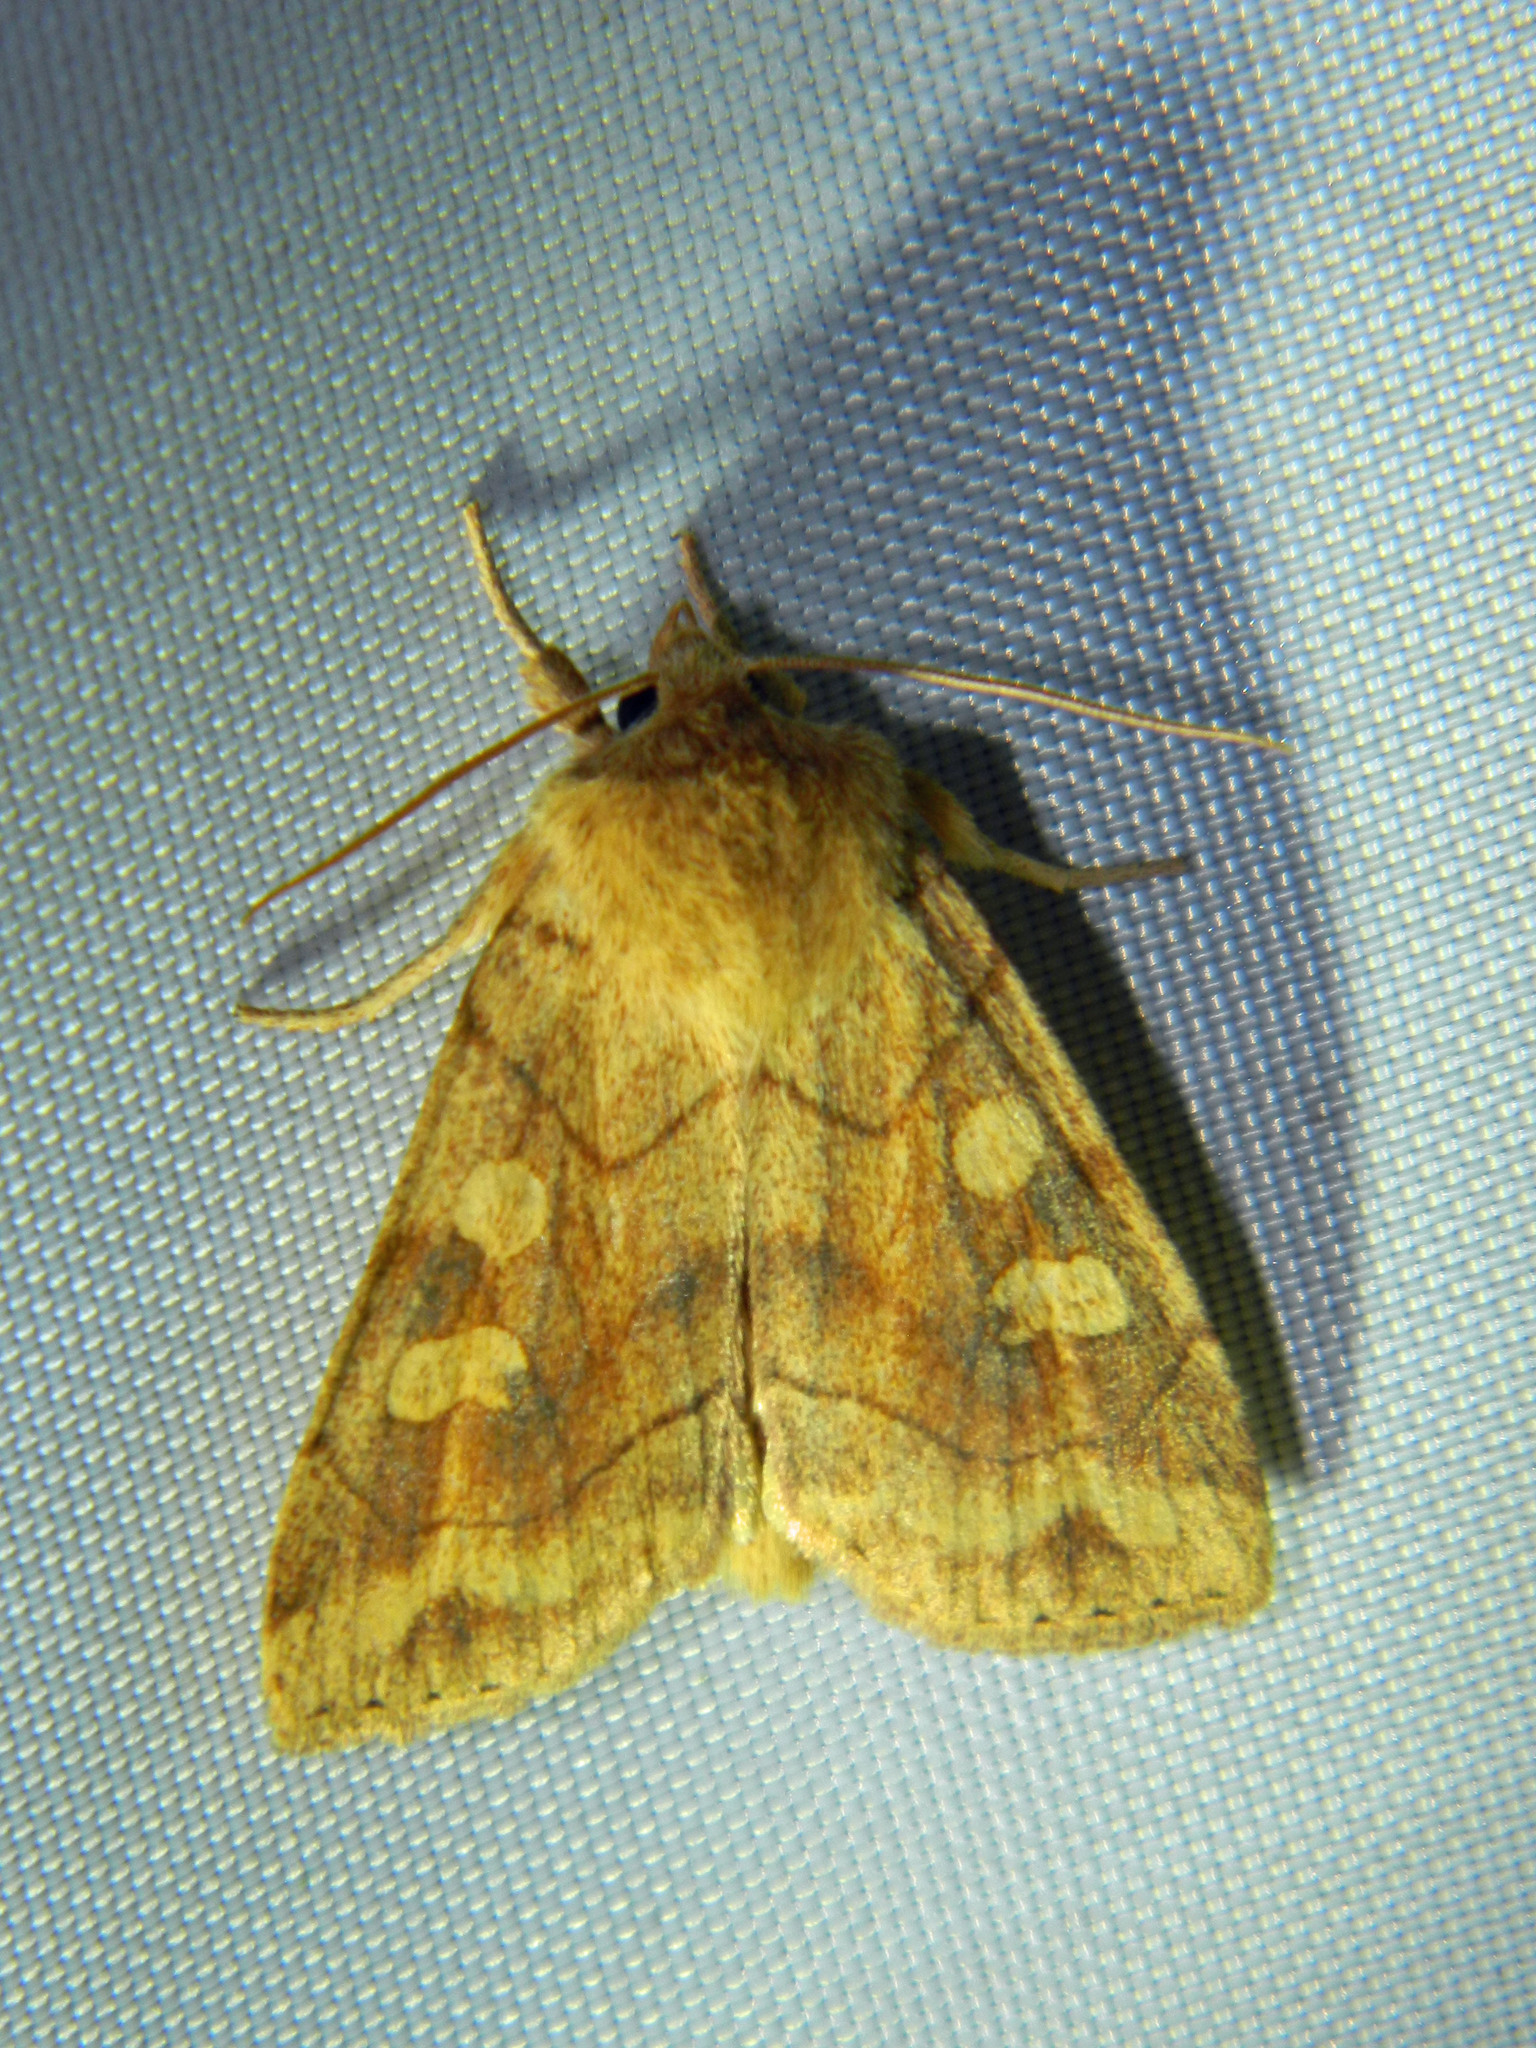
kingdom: Animalia
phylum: Arthropoda
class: Insecta
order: Lepidoptera
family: Noctuidae
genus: Enargia
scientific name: Enargia decolor
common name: Aspen twoleaf tier moth
